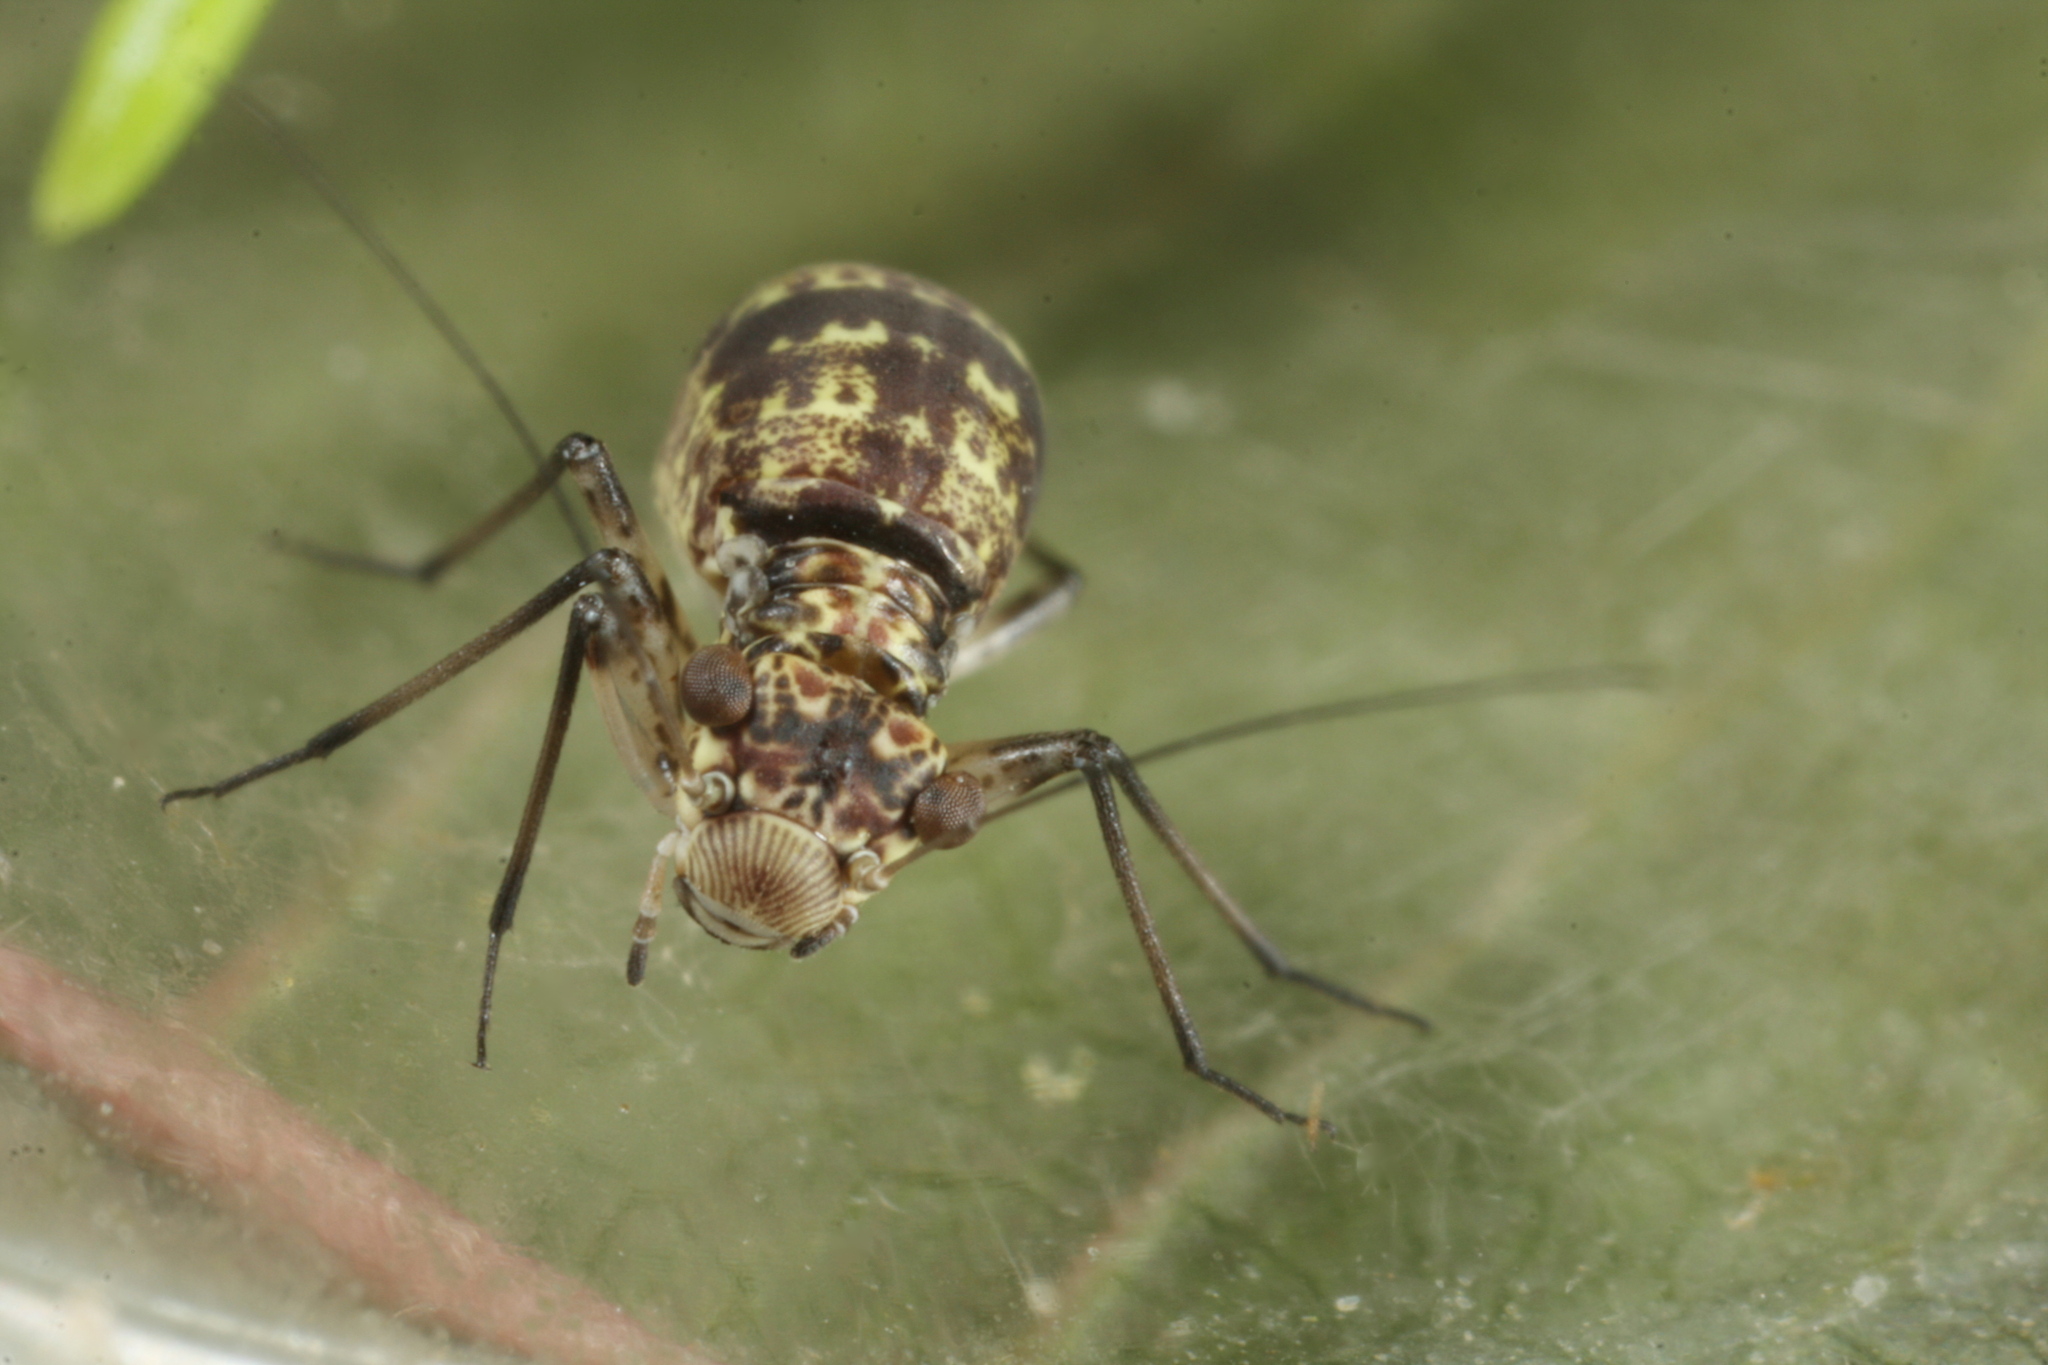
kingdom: Animalia
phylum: Arthropoda
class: Insecta
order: Psocodea
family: Mesopsocidae
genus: Mesopsocus
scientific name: Mesopsocus immunis
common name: Bark louse
